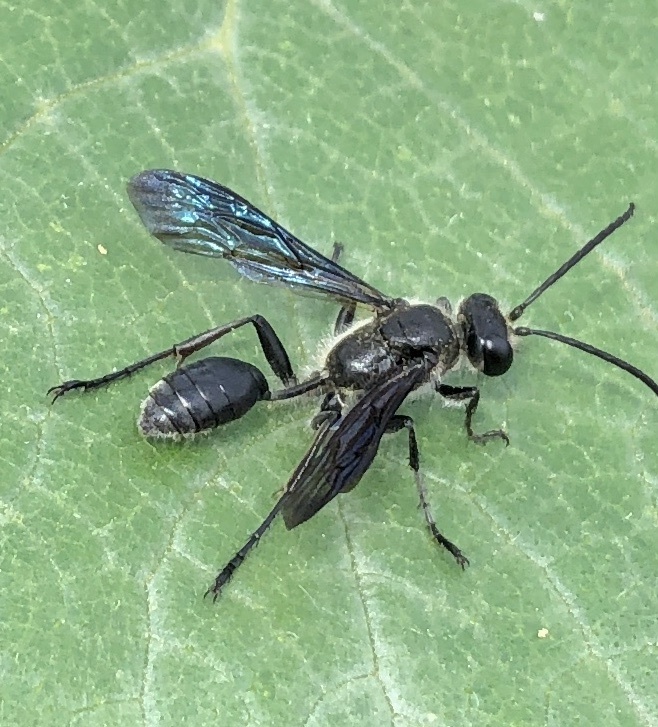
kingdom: Animalia
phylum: Arthropoda
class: Insecta
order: Hymenoptera
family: Sphecidae
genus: Isodontia
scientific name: Isodontia mexicana
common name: Mud dauber
